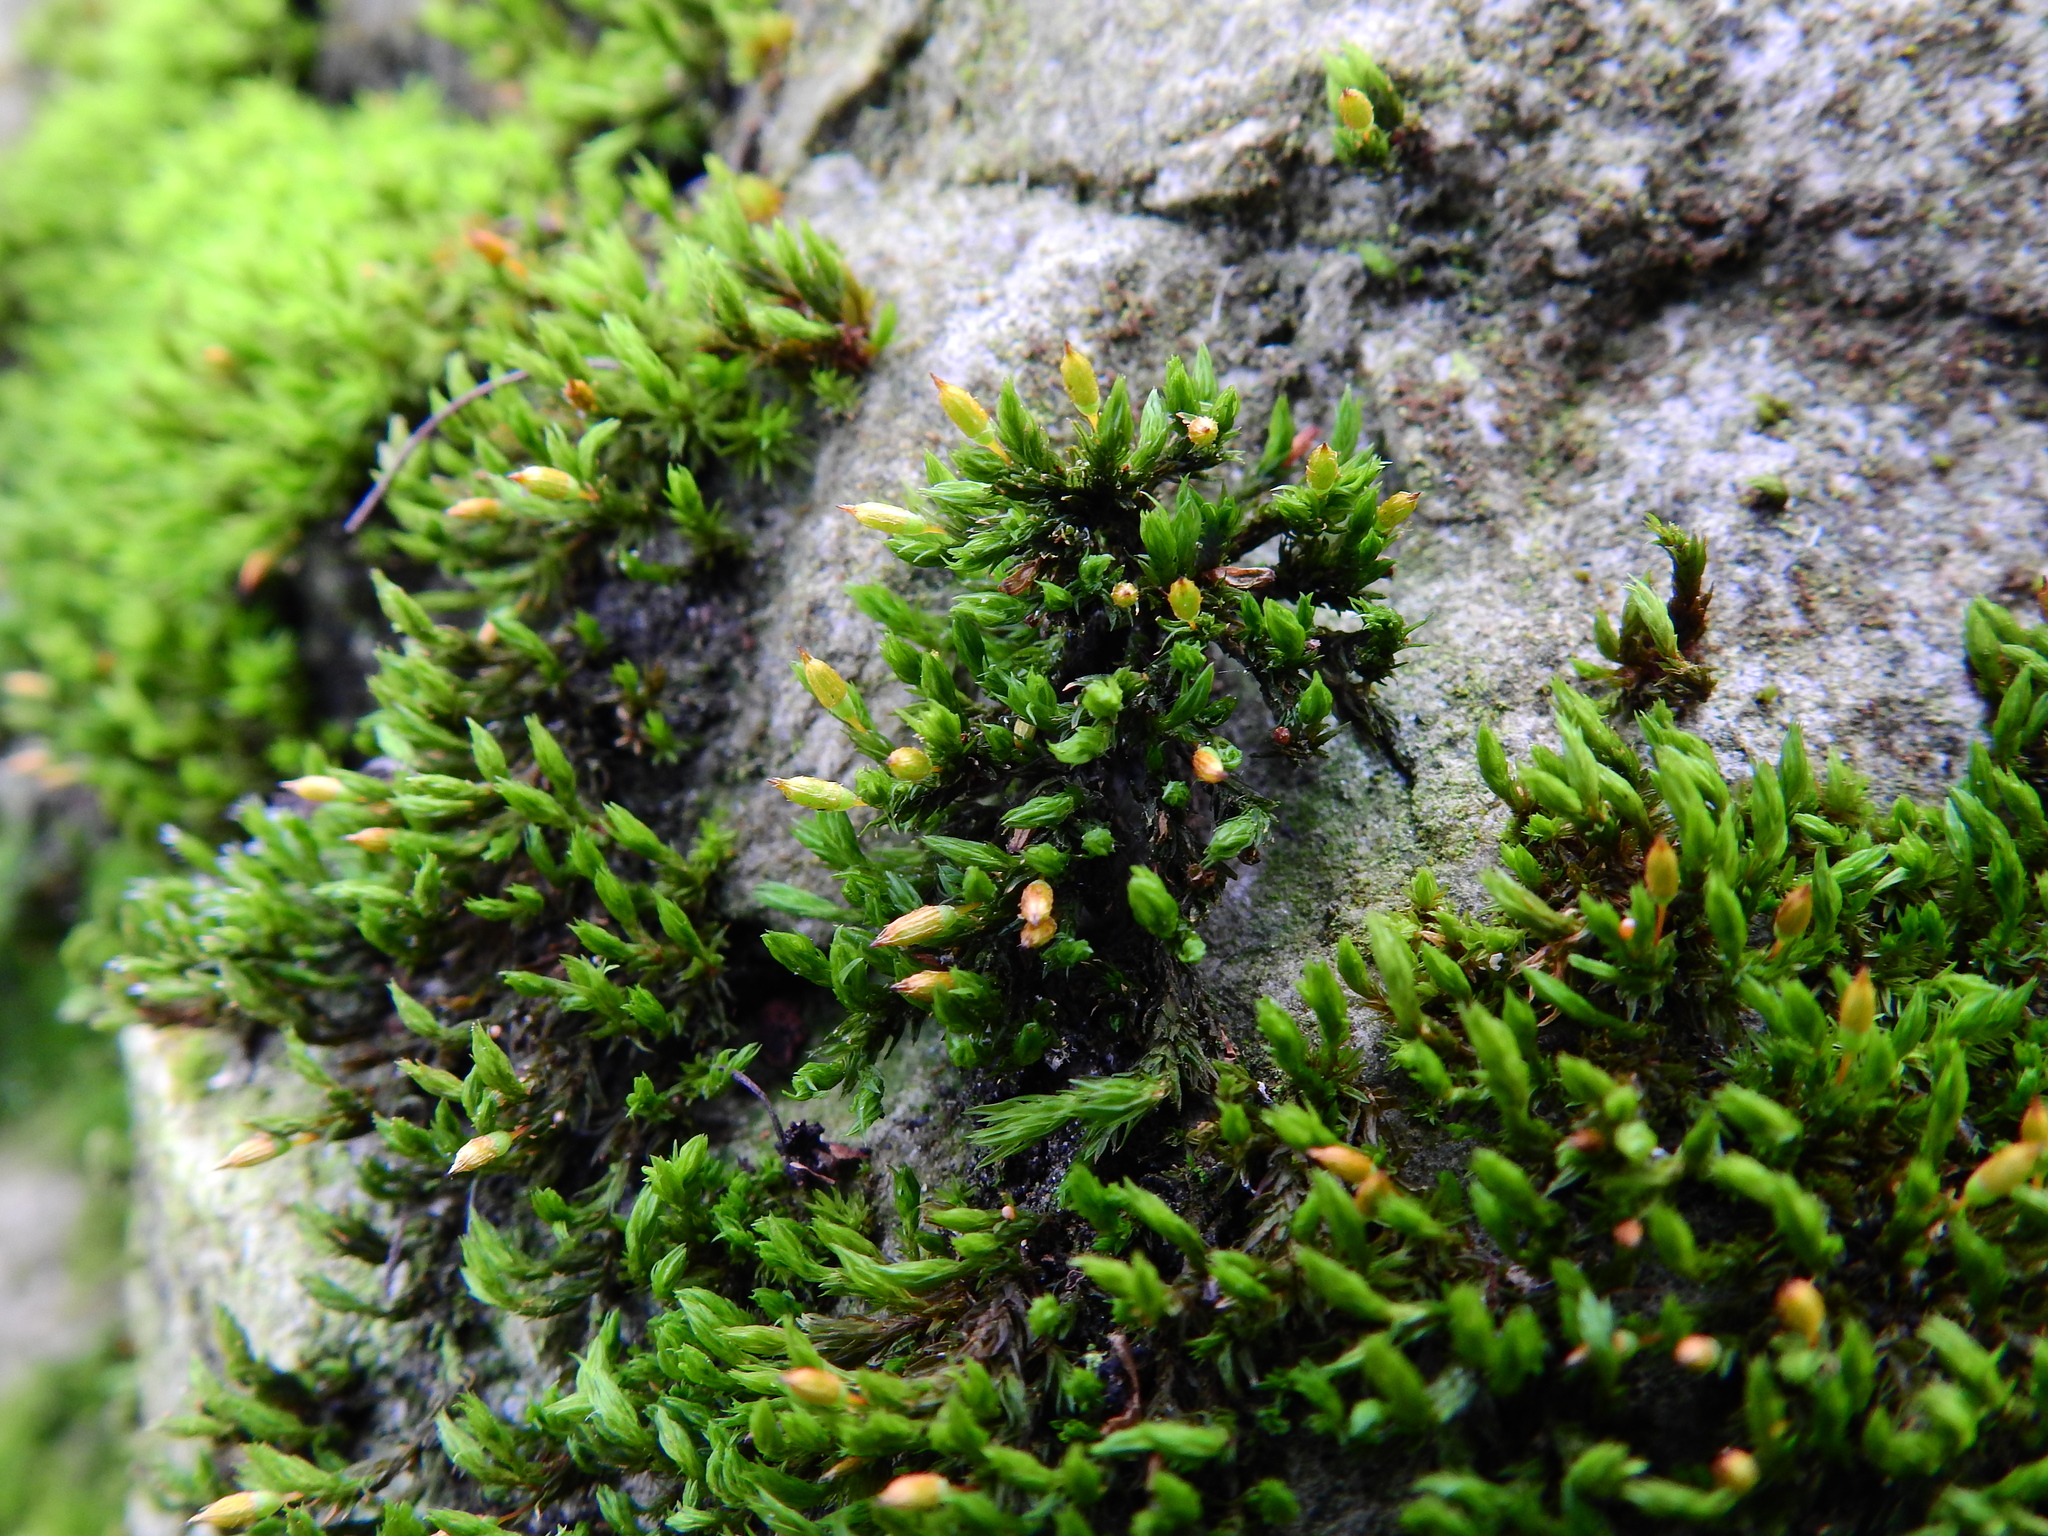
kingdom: Plantae
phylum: Bryophyta
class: Bryopsida
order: Orthotrichales
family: Orthotrichaceae
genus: Orthotrichum
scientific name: Orthotrichum anomalum
